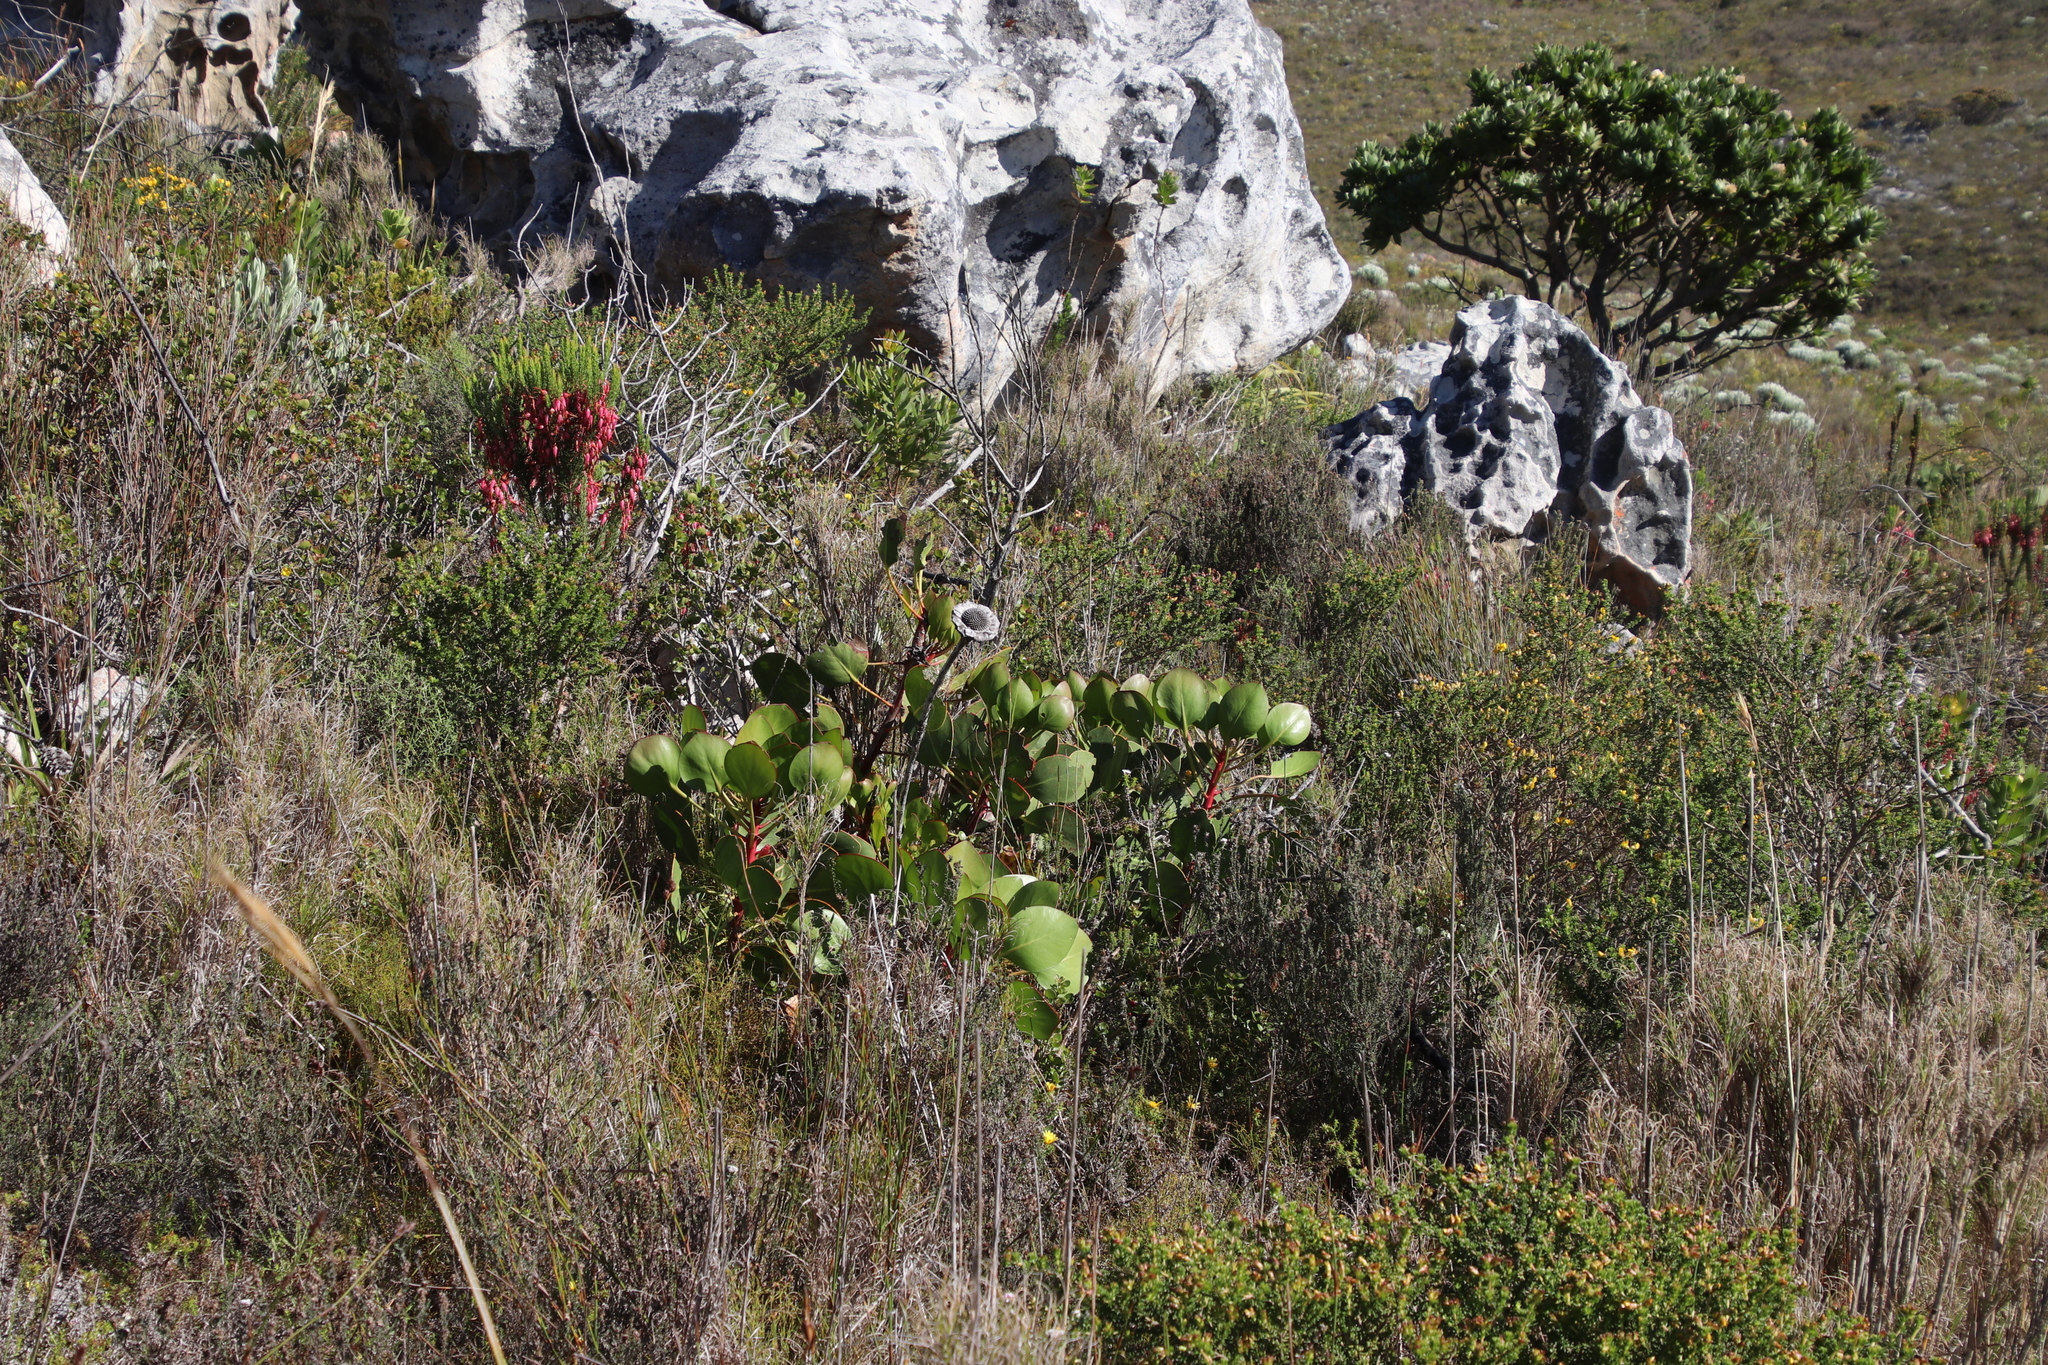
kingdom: Plantae
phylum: Tracheophyta
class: Magnoliopsida
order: Proteales
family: Proteaceae
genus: Protea
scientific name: Protea cynaroides
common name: King protea
